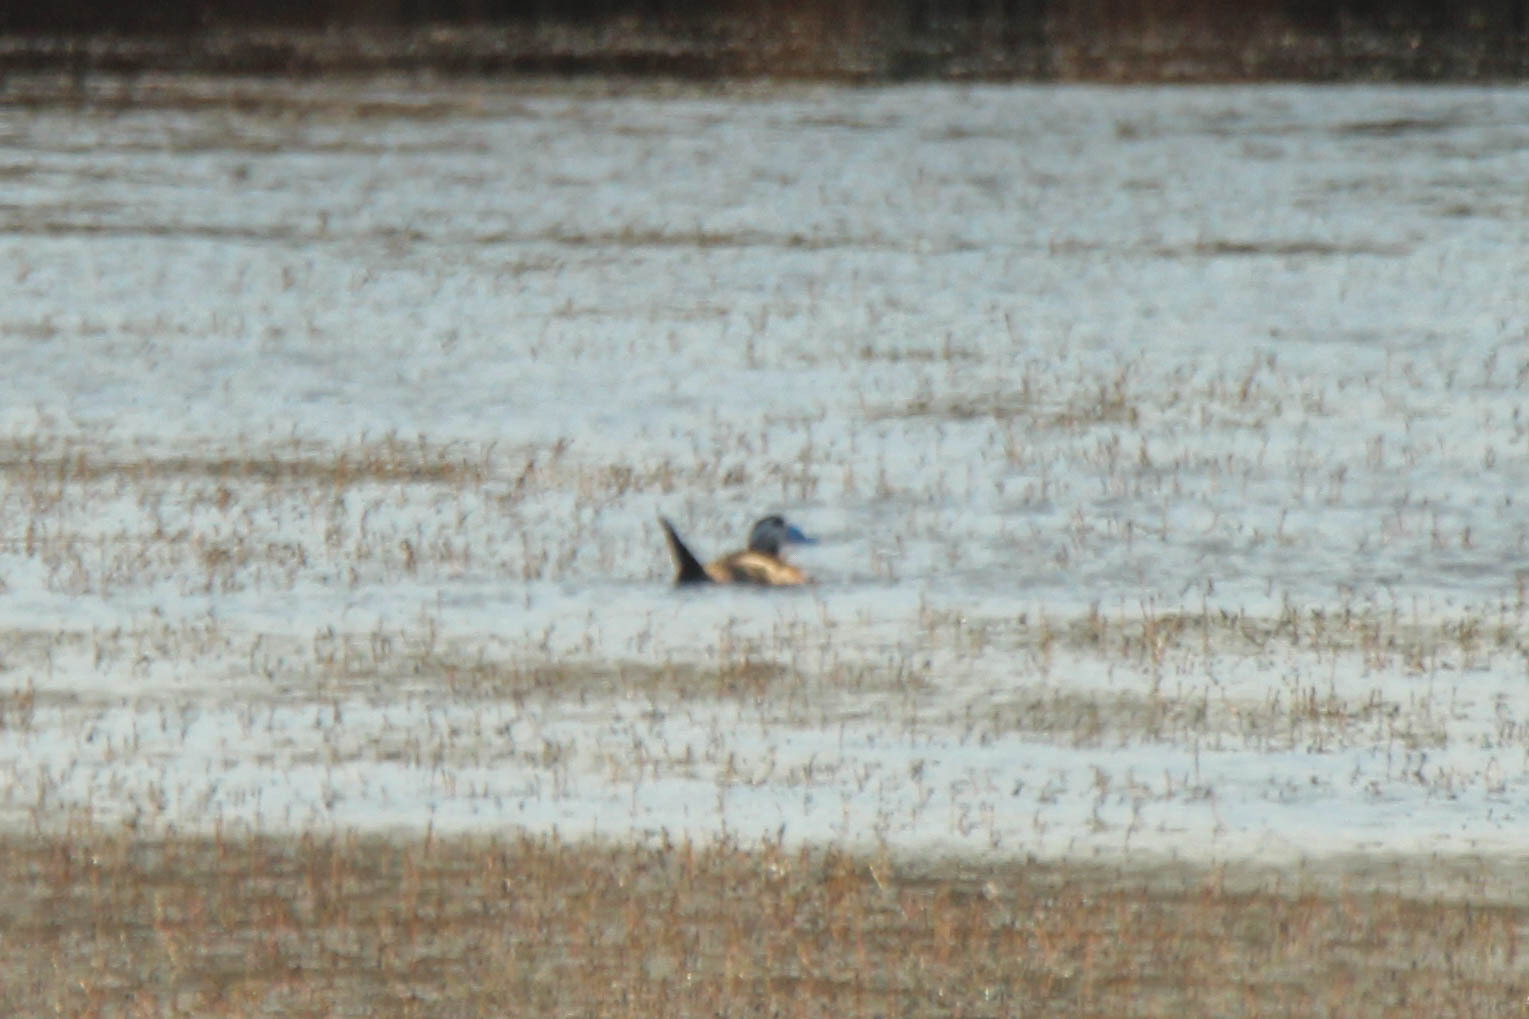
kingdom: Animalia
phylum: Chordata
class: Aves
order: Anseriformes
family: Anatidae
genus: Oxyura
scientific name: Oxyura leucocephala
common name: White-headed duck
